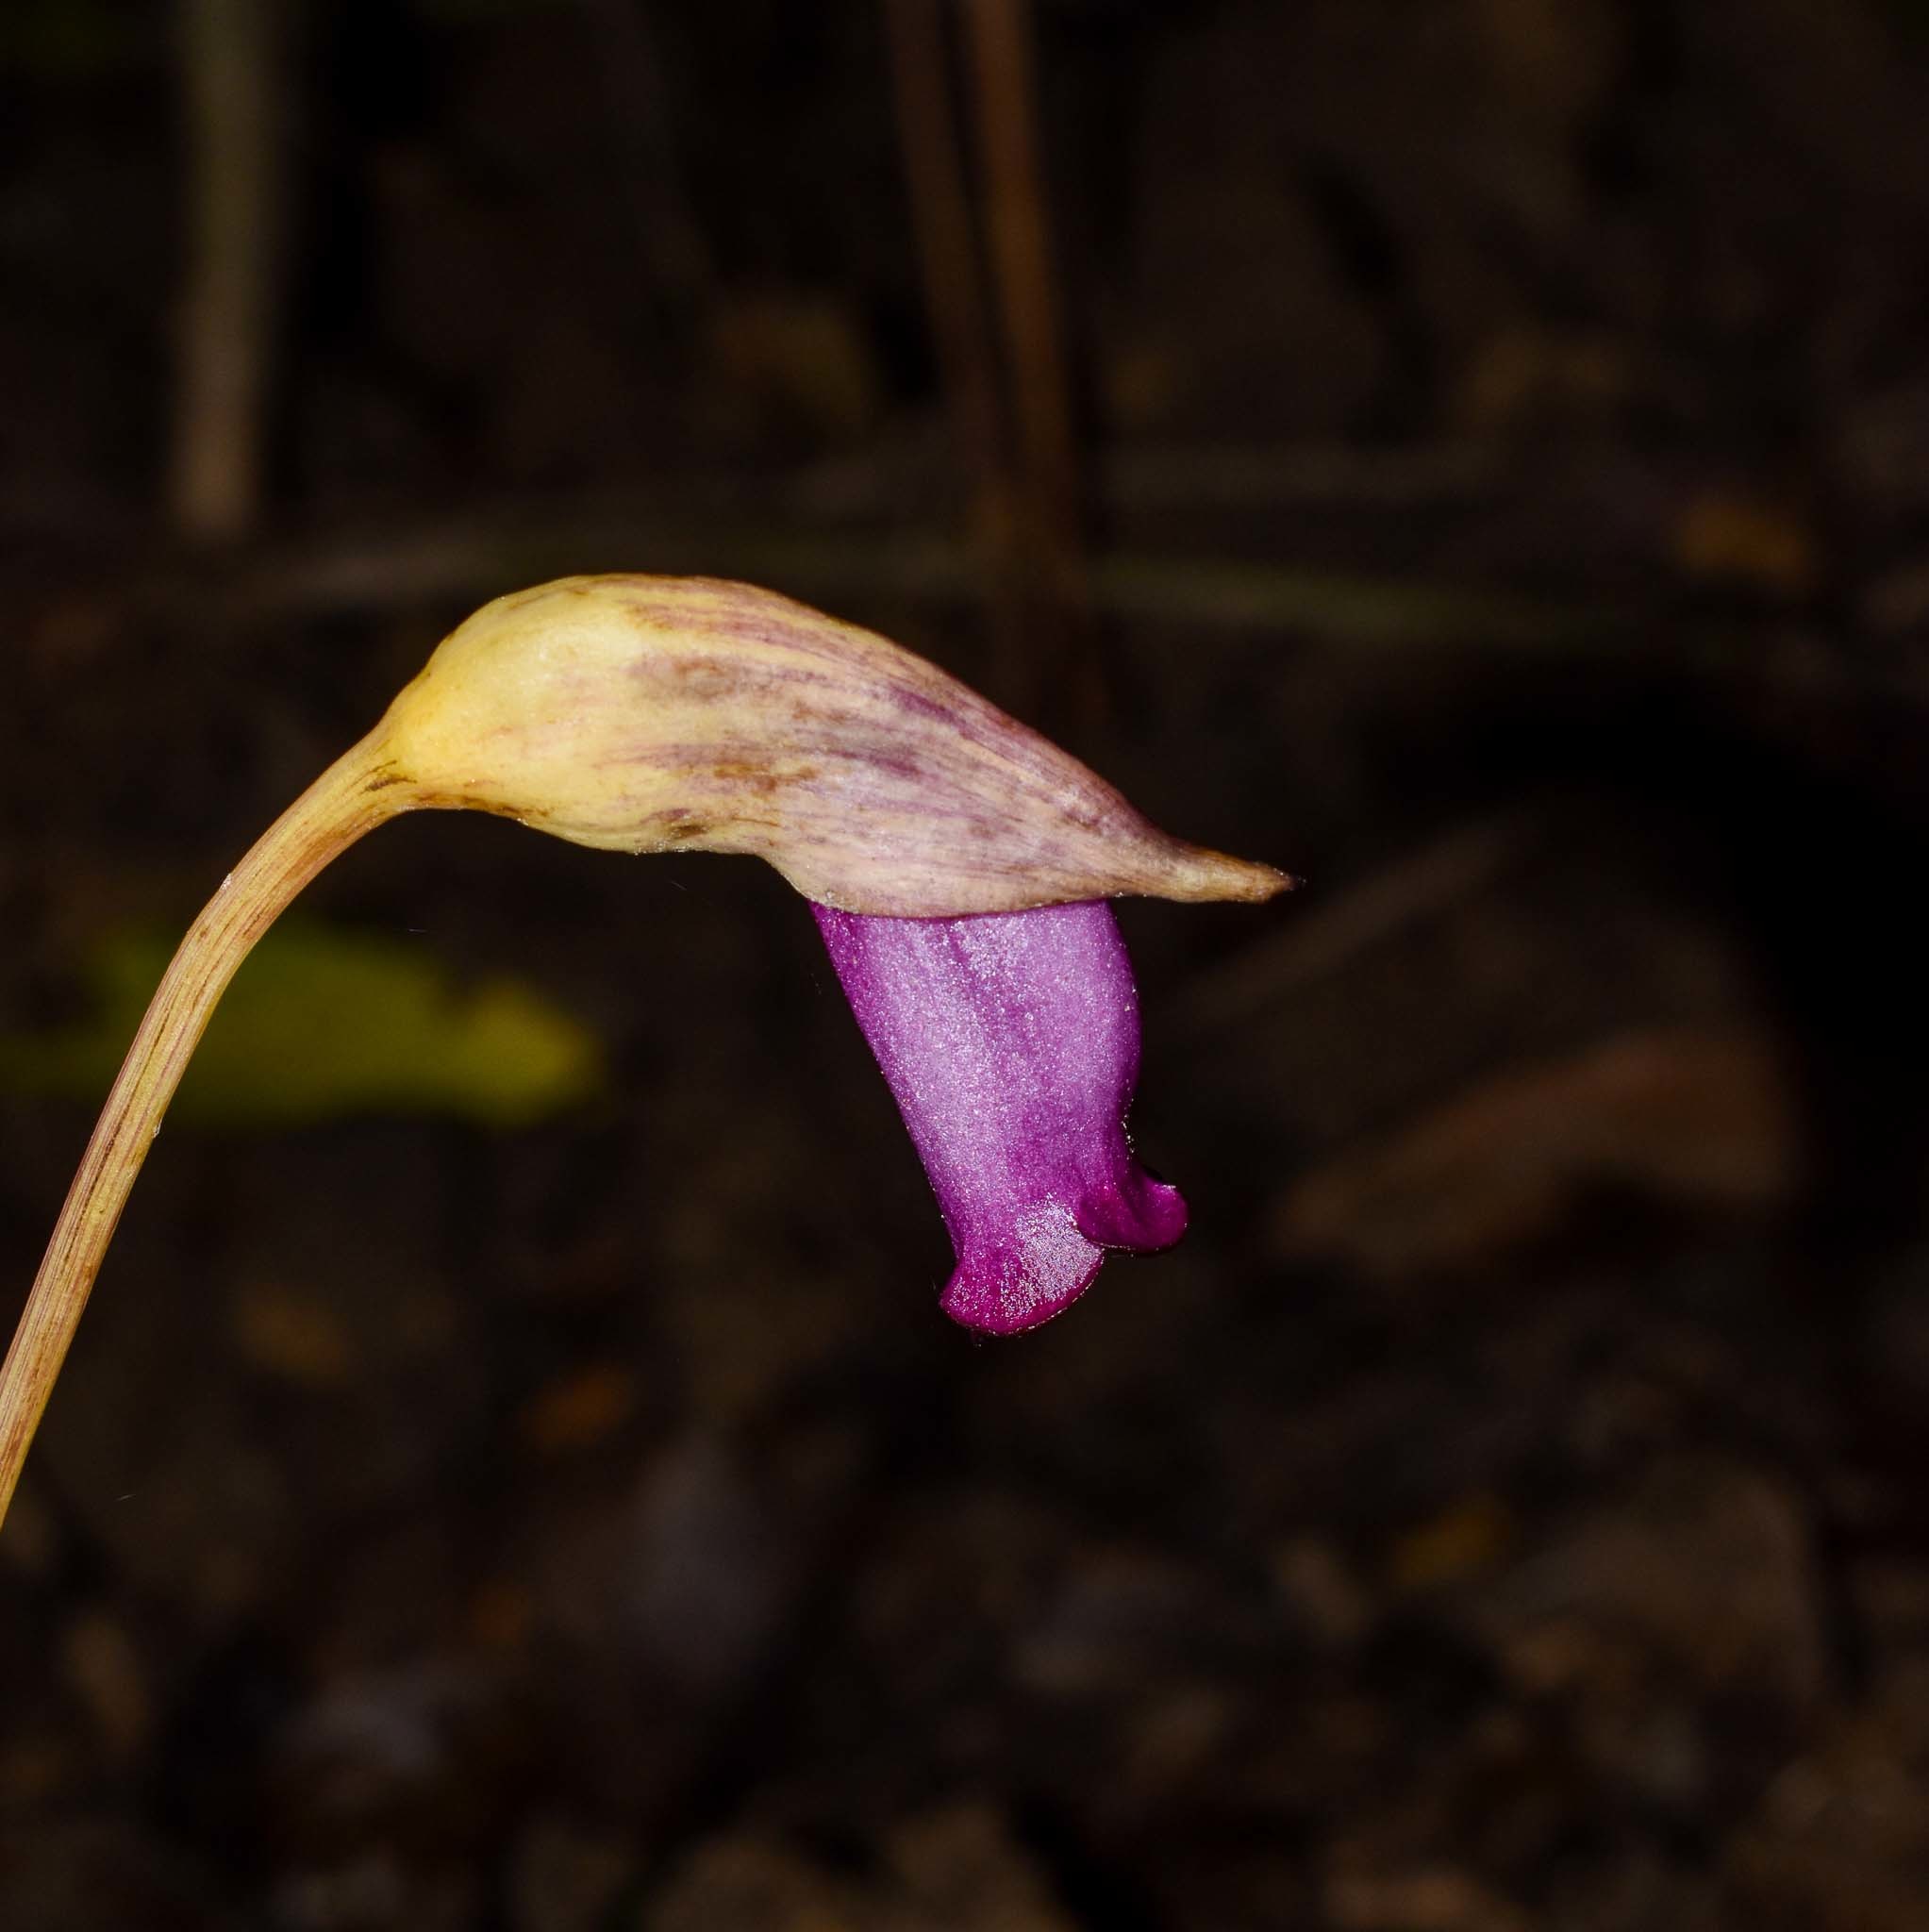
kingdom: Plantae
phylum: Tracheophyta
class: Magnoliopsida
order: Lamiales
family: Orobanchaceae
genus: Aeginetia
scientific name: Aeginetia indica
